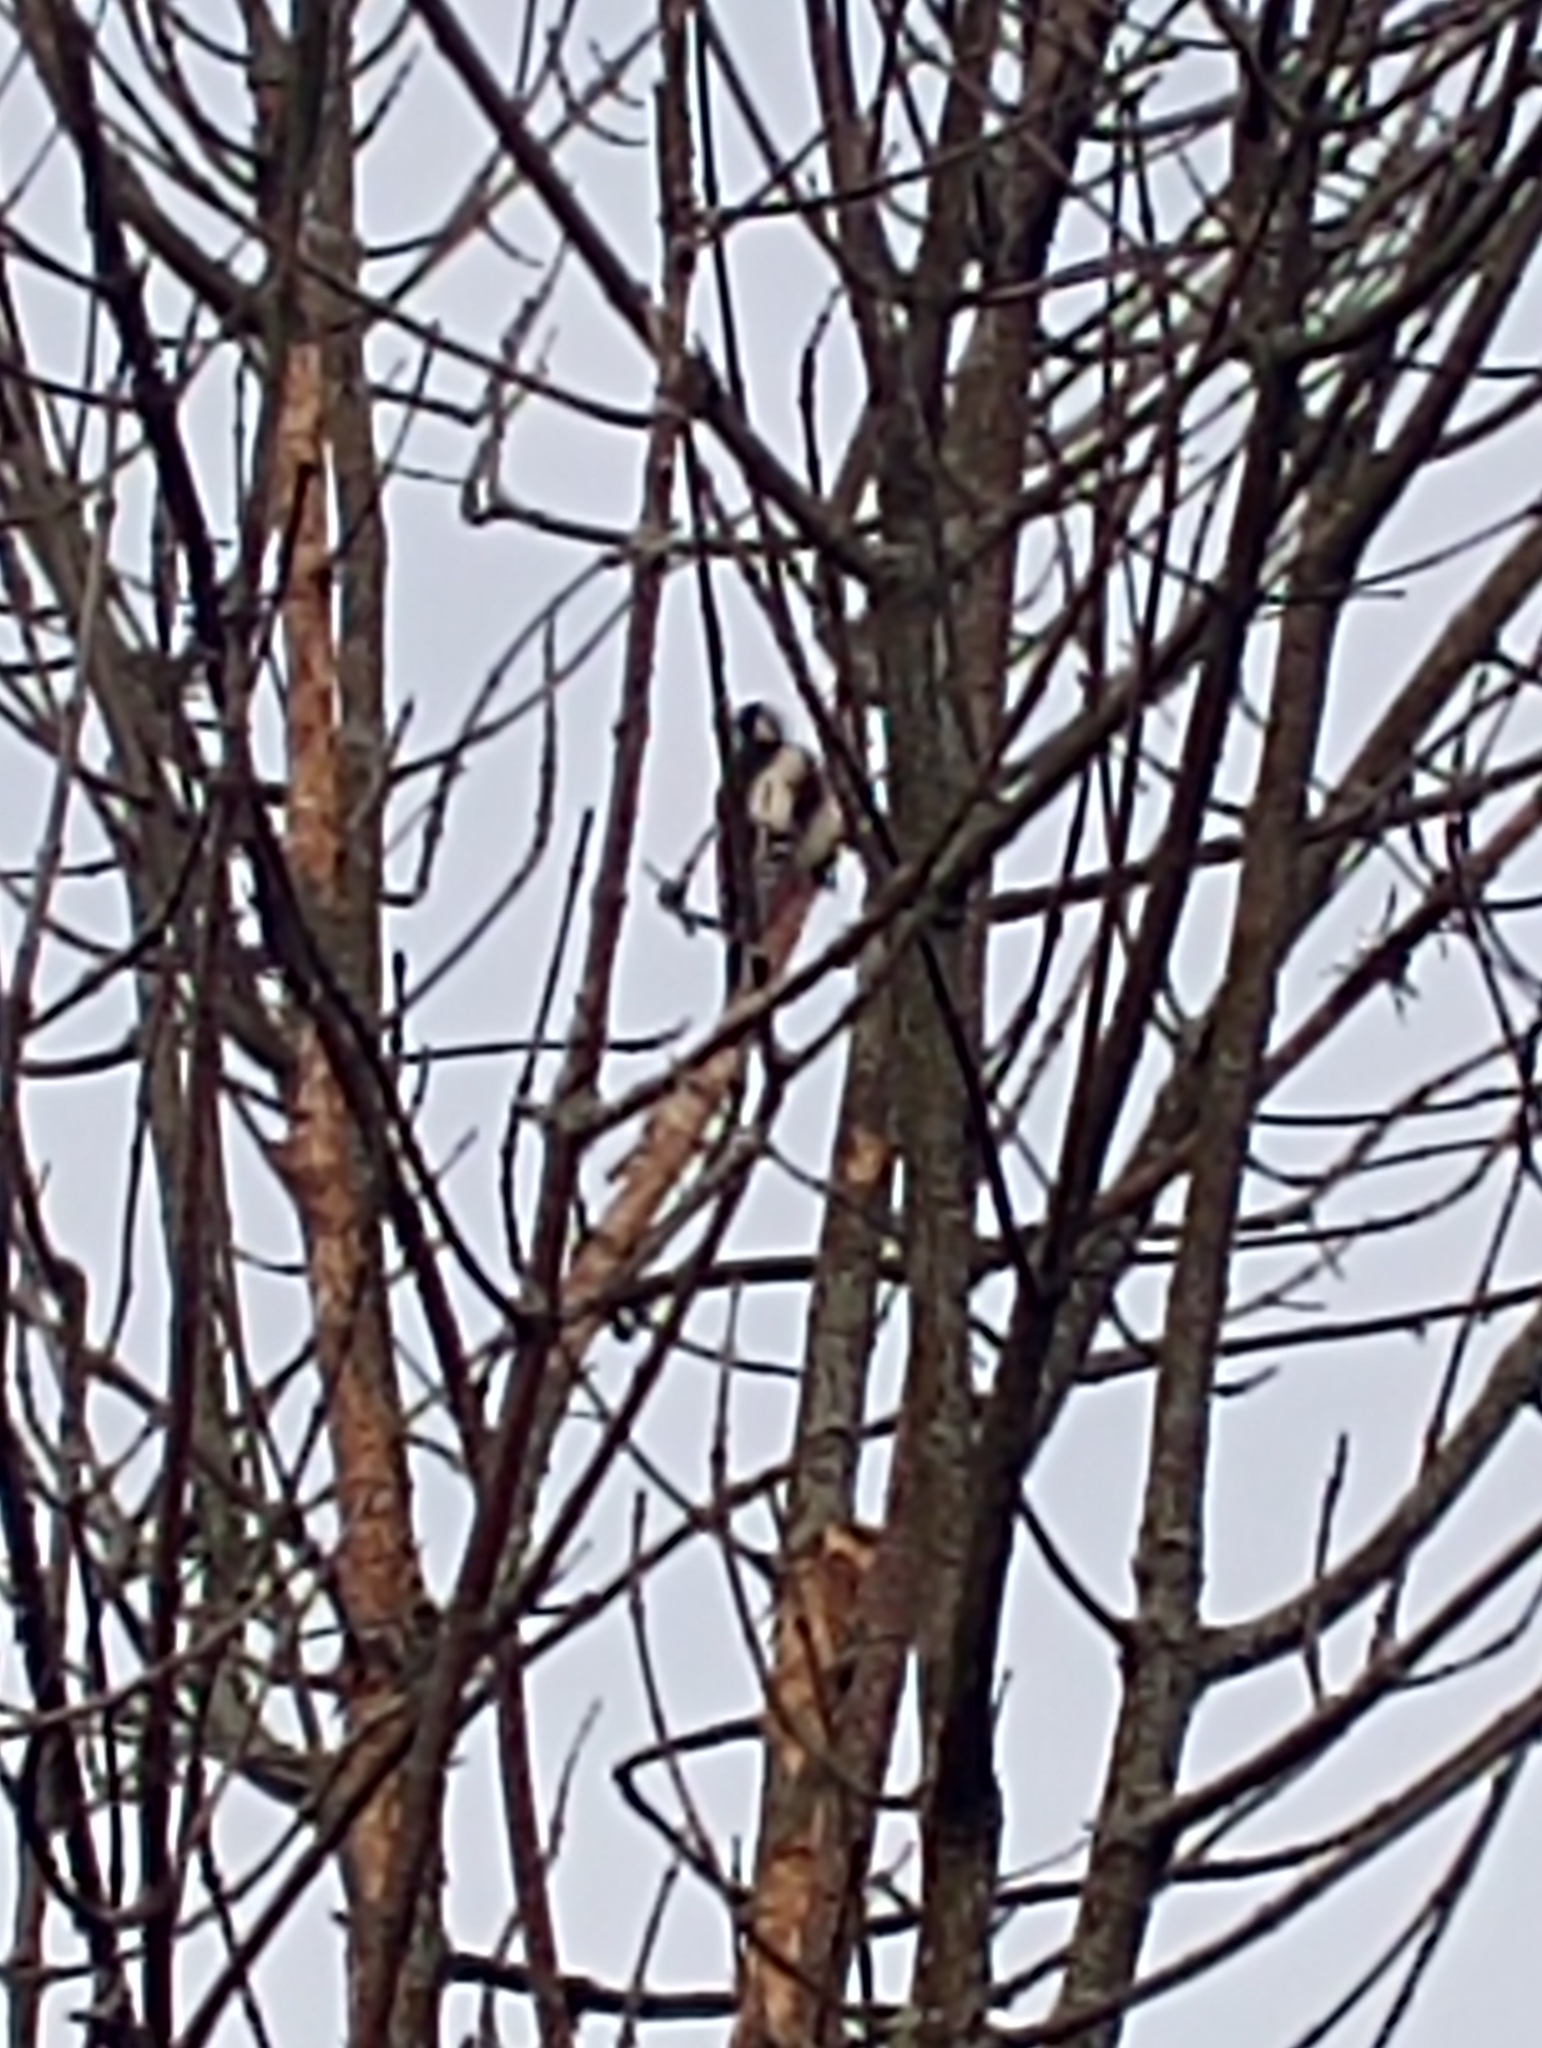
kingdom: Animalia
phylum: Chordata
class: Aves
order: Piciformes
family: Picidae
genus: Dendrocopos
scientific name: Dendrocopos major
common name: Great spotted woodpecker
